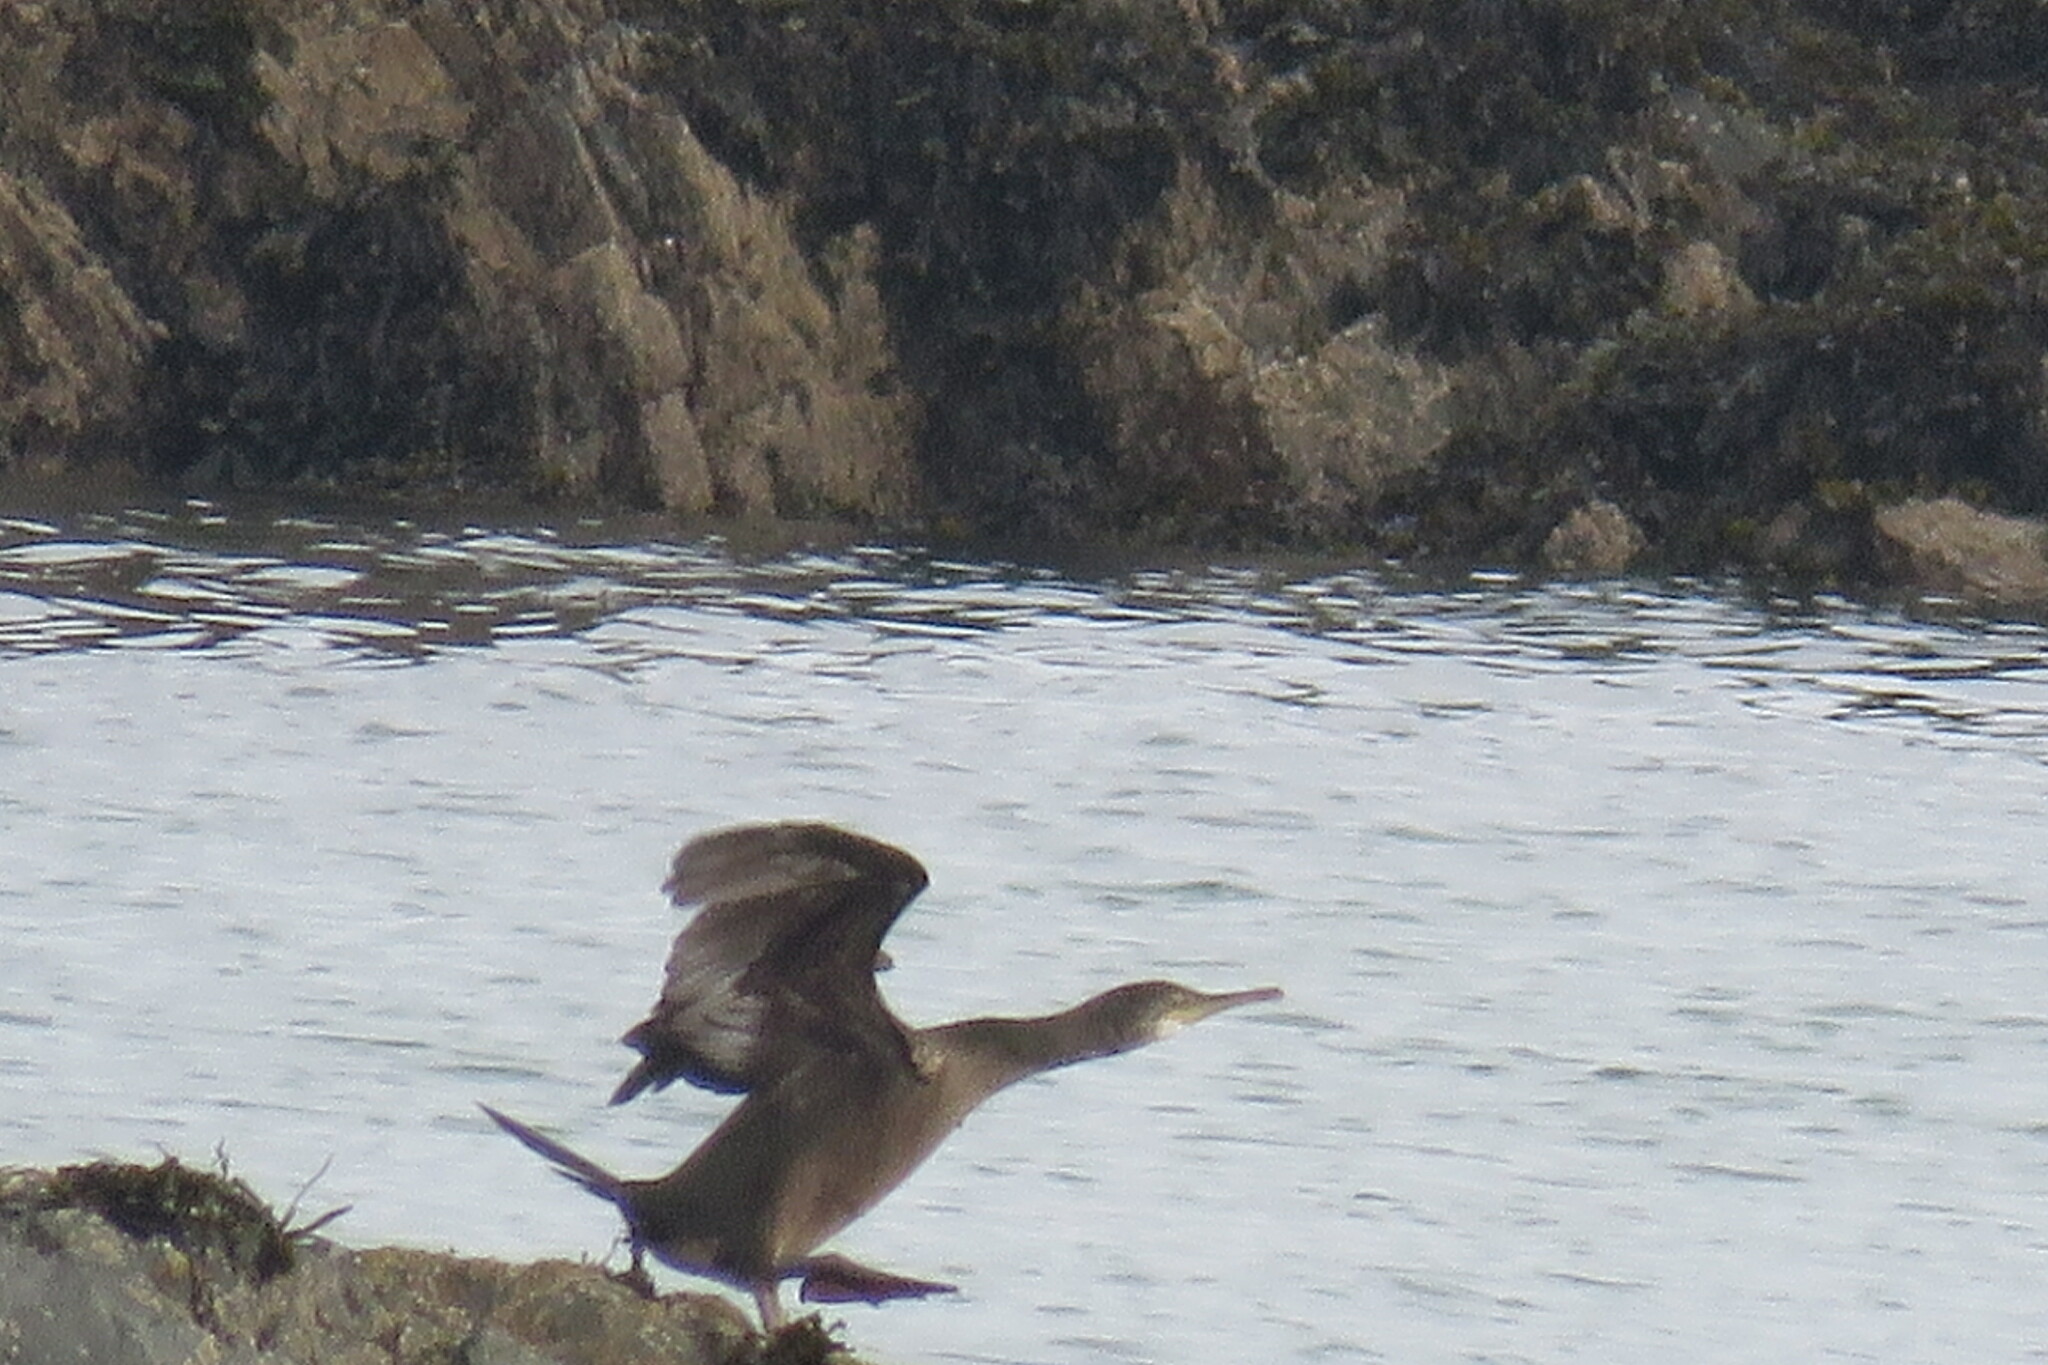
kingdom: Animalia
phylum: Chordata
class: Aves
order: Suliformes
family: Phalacrocoracidae
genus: Phalacrocorax
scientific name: Phalacrocorax aristotelis
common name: European shag
